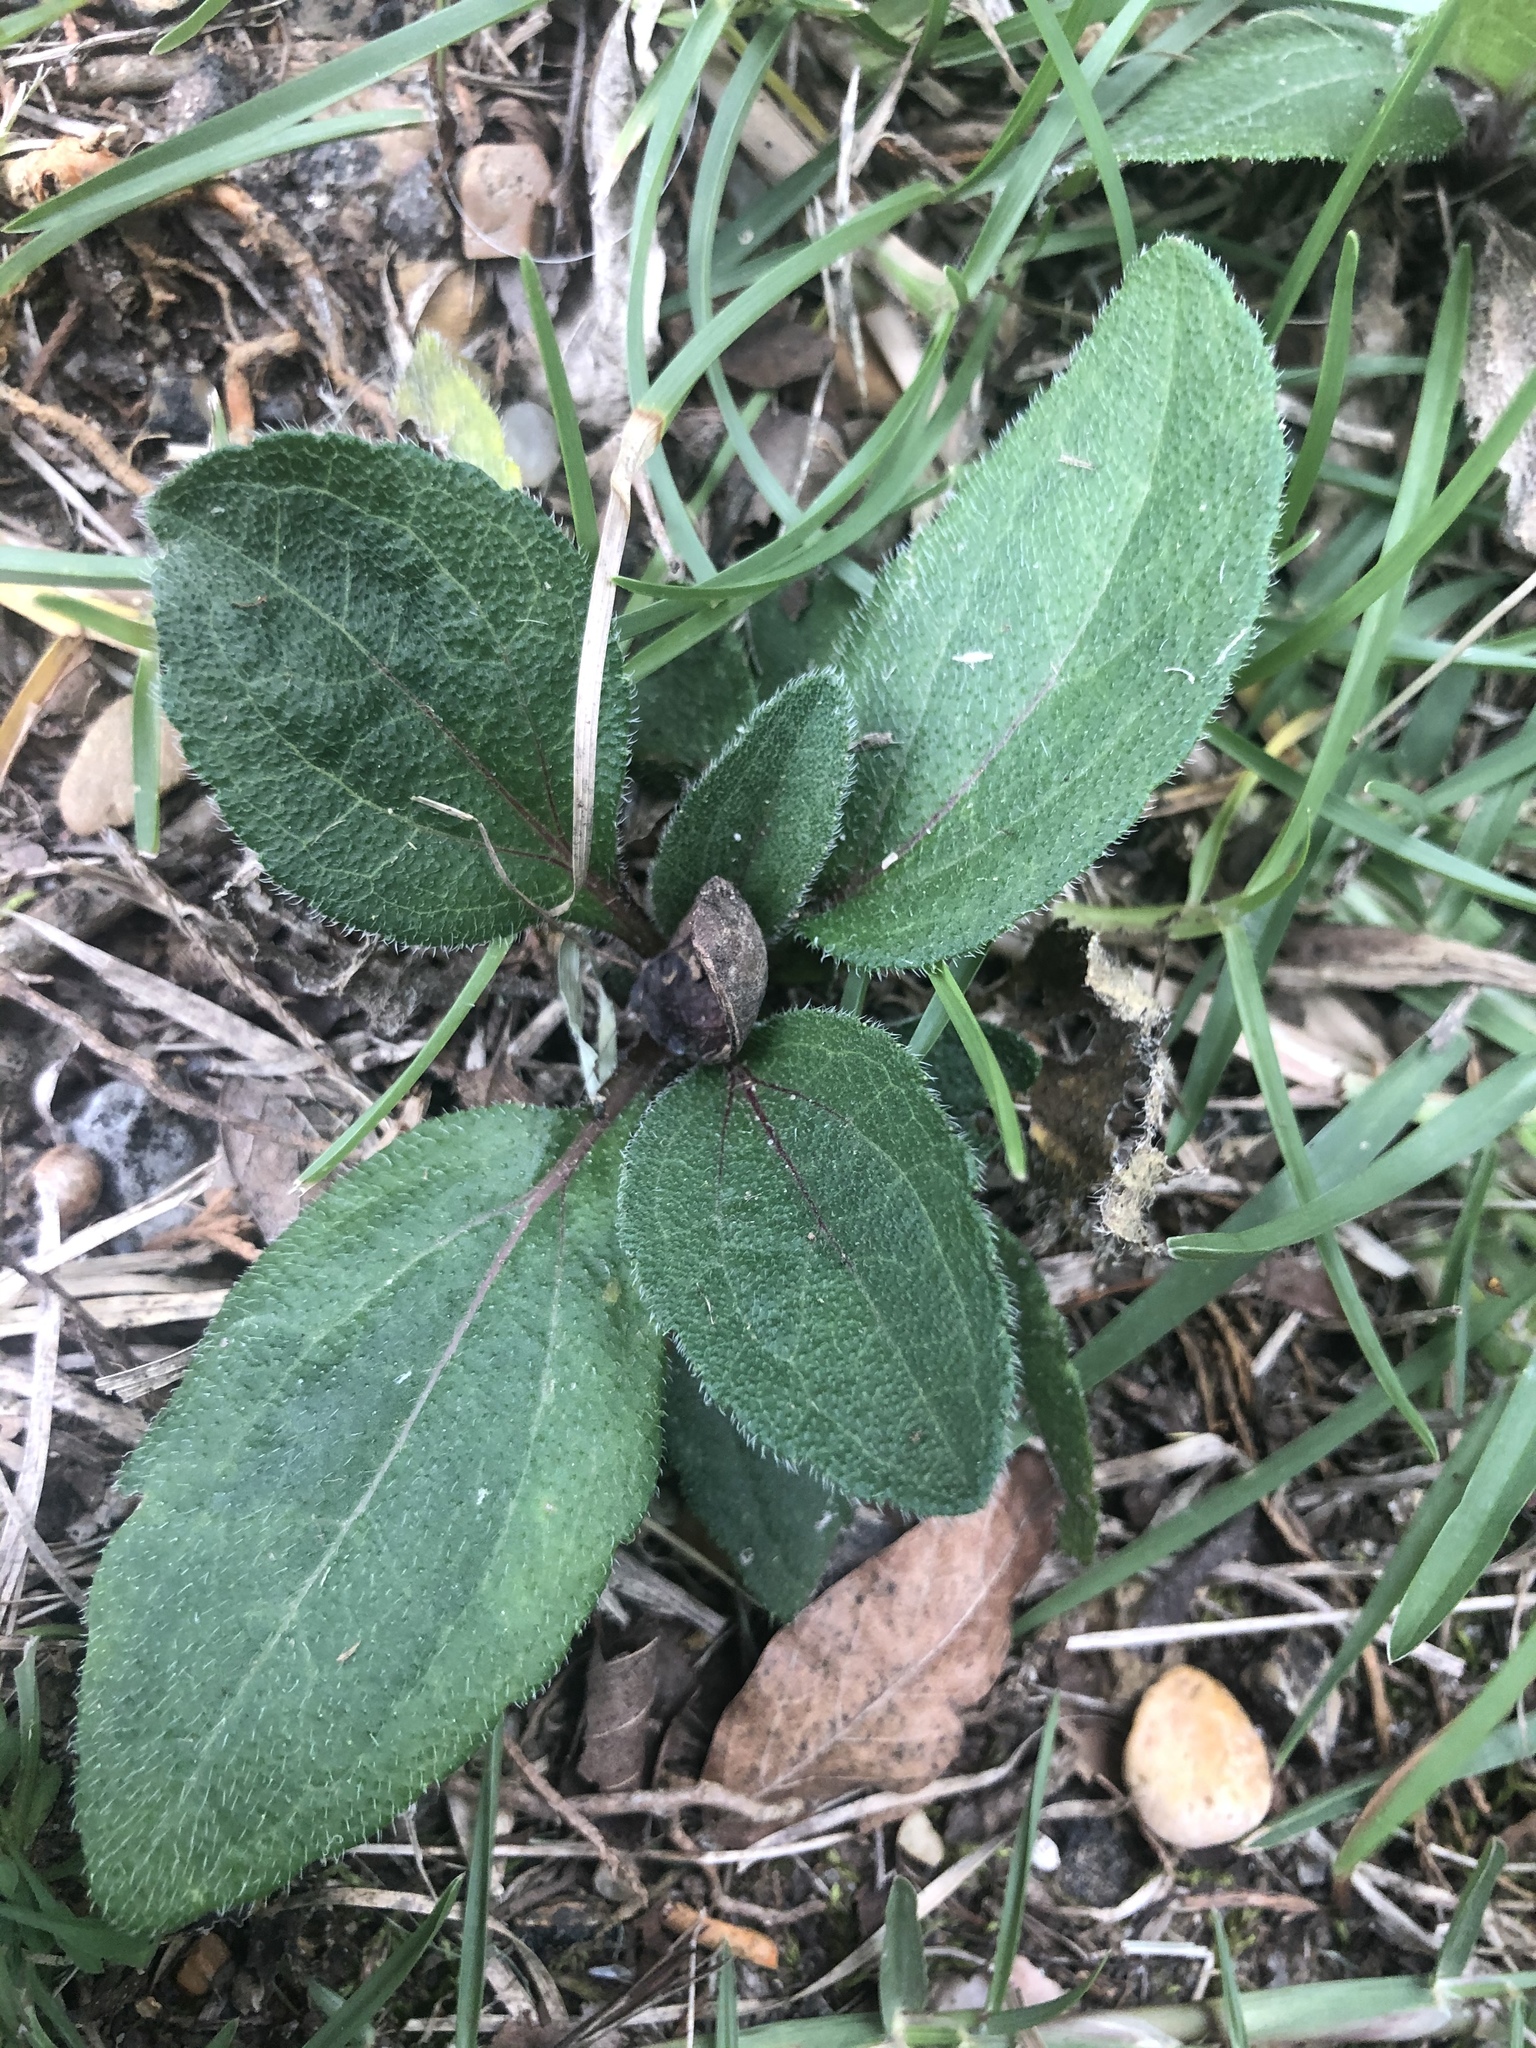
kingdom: Plantae
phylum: Tracheophyta
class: Magnoliopsida
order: Asterales
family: Asteraceae
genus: Rudbeckia
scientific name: Rudbeckia hirta
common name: Black-eyed-susan
